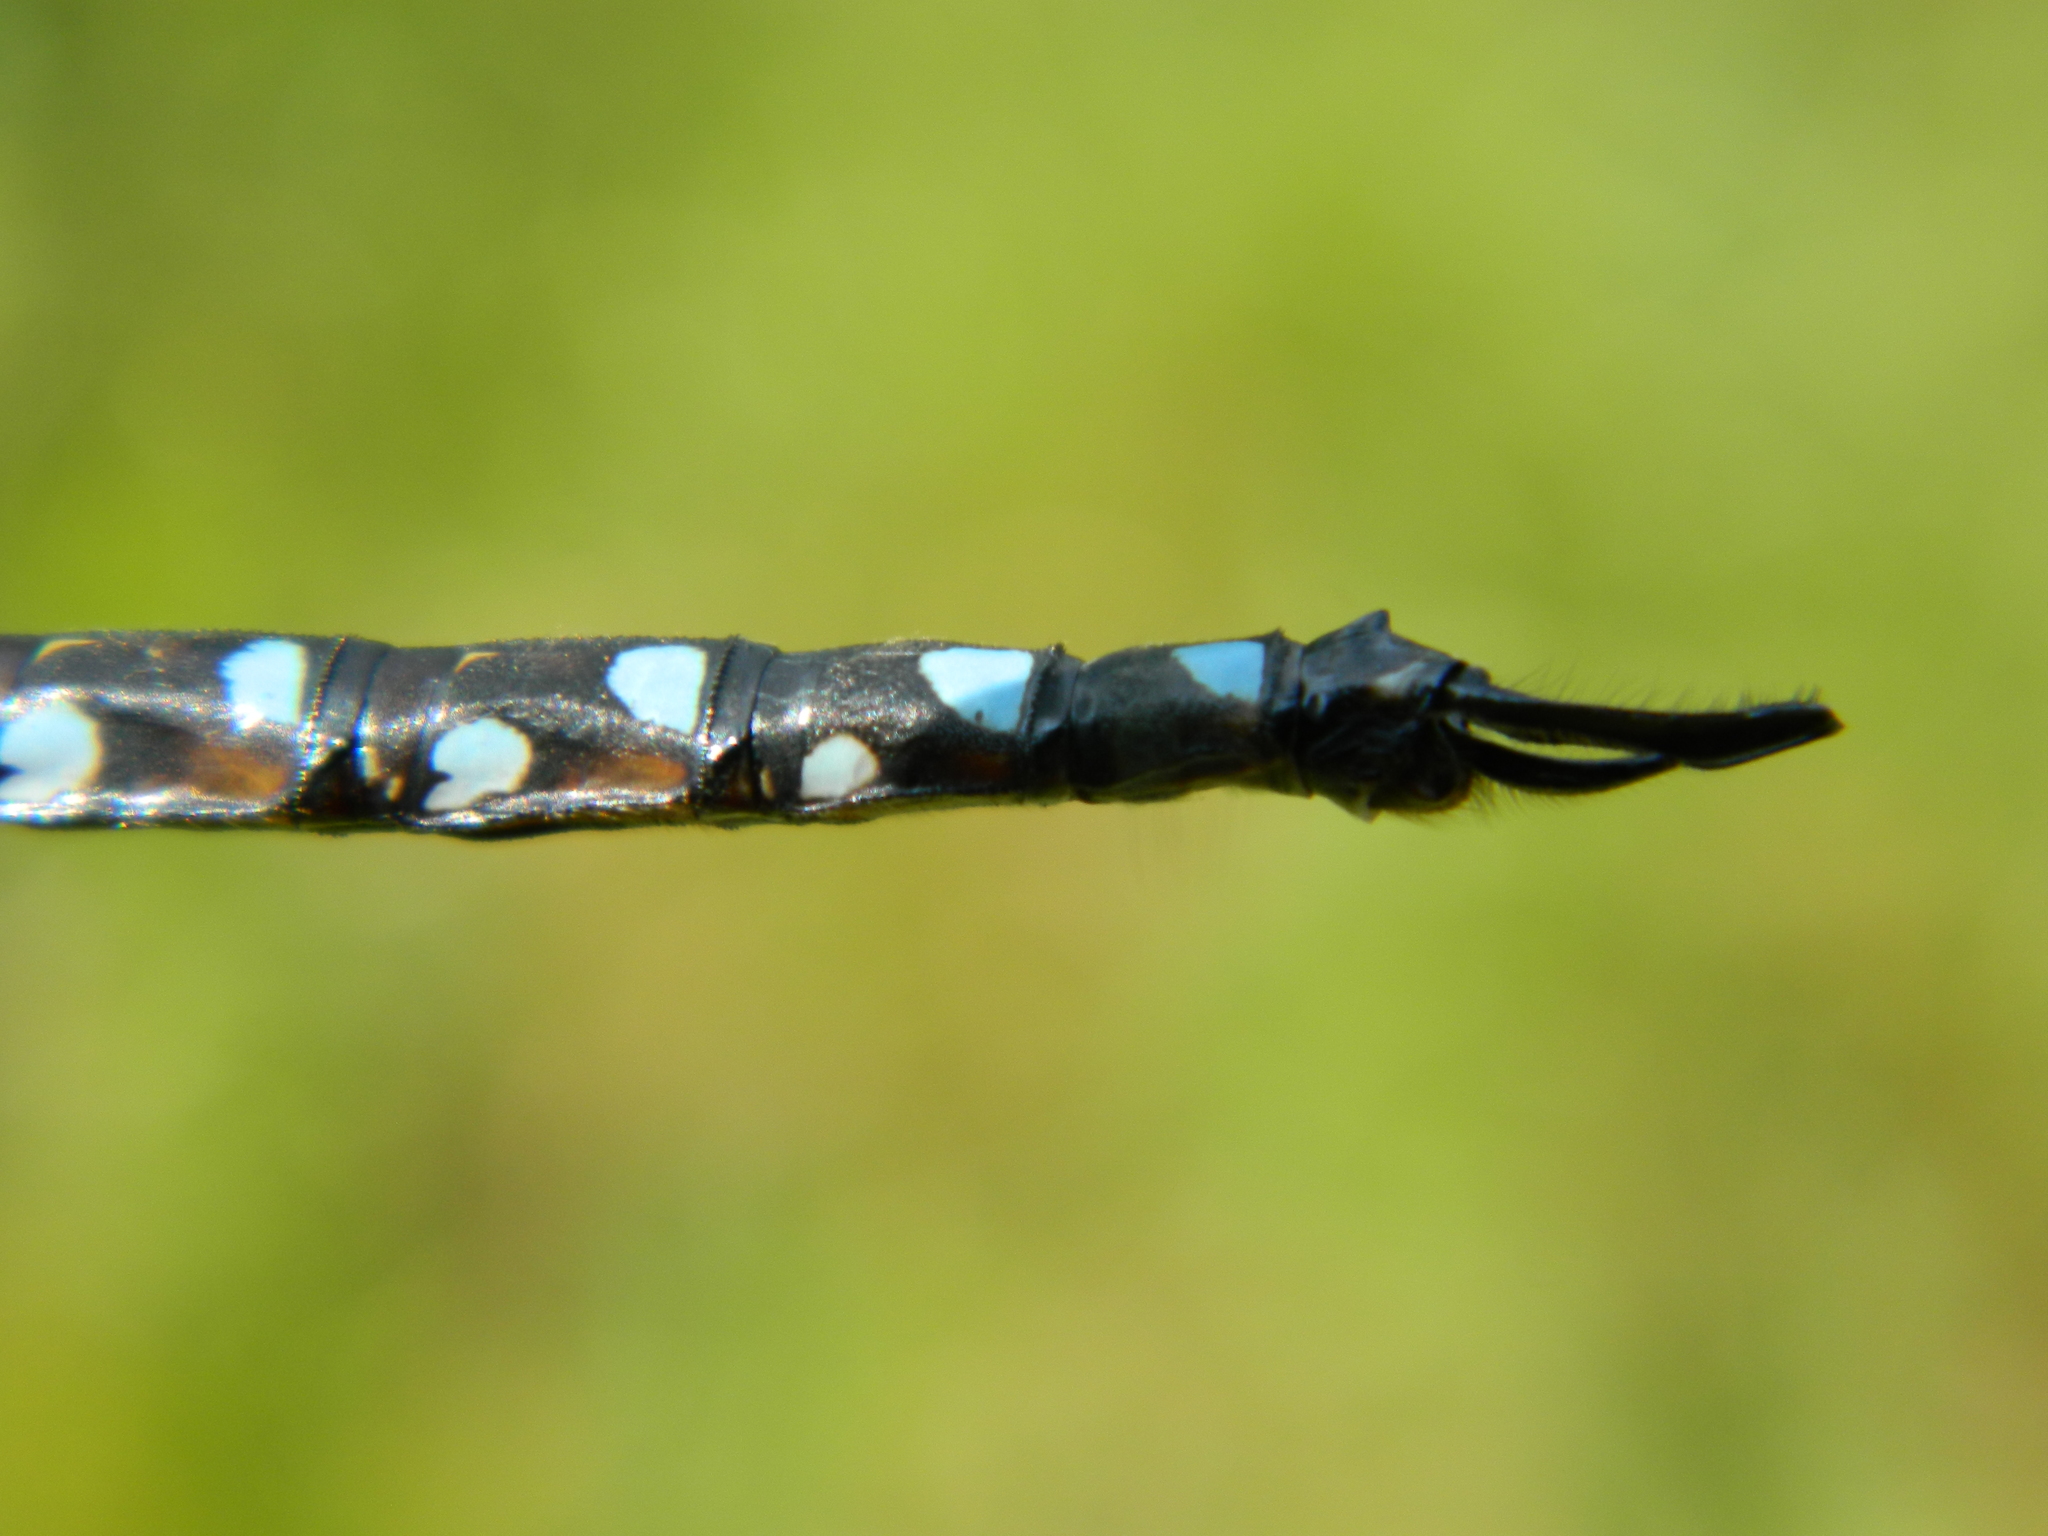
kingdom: Animalia
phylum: Arthropoda
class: Insecta
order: Odonata
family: Aeshnidae
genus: Aeshna
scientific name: Aeshna interrupta
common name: Variable darner
